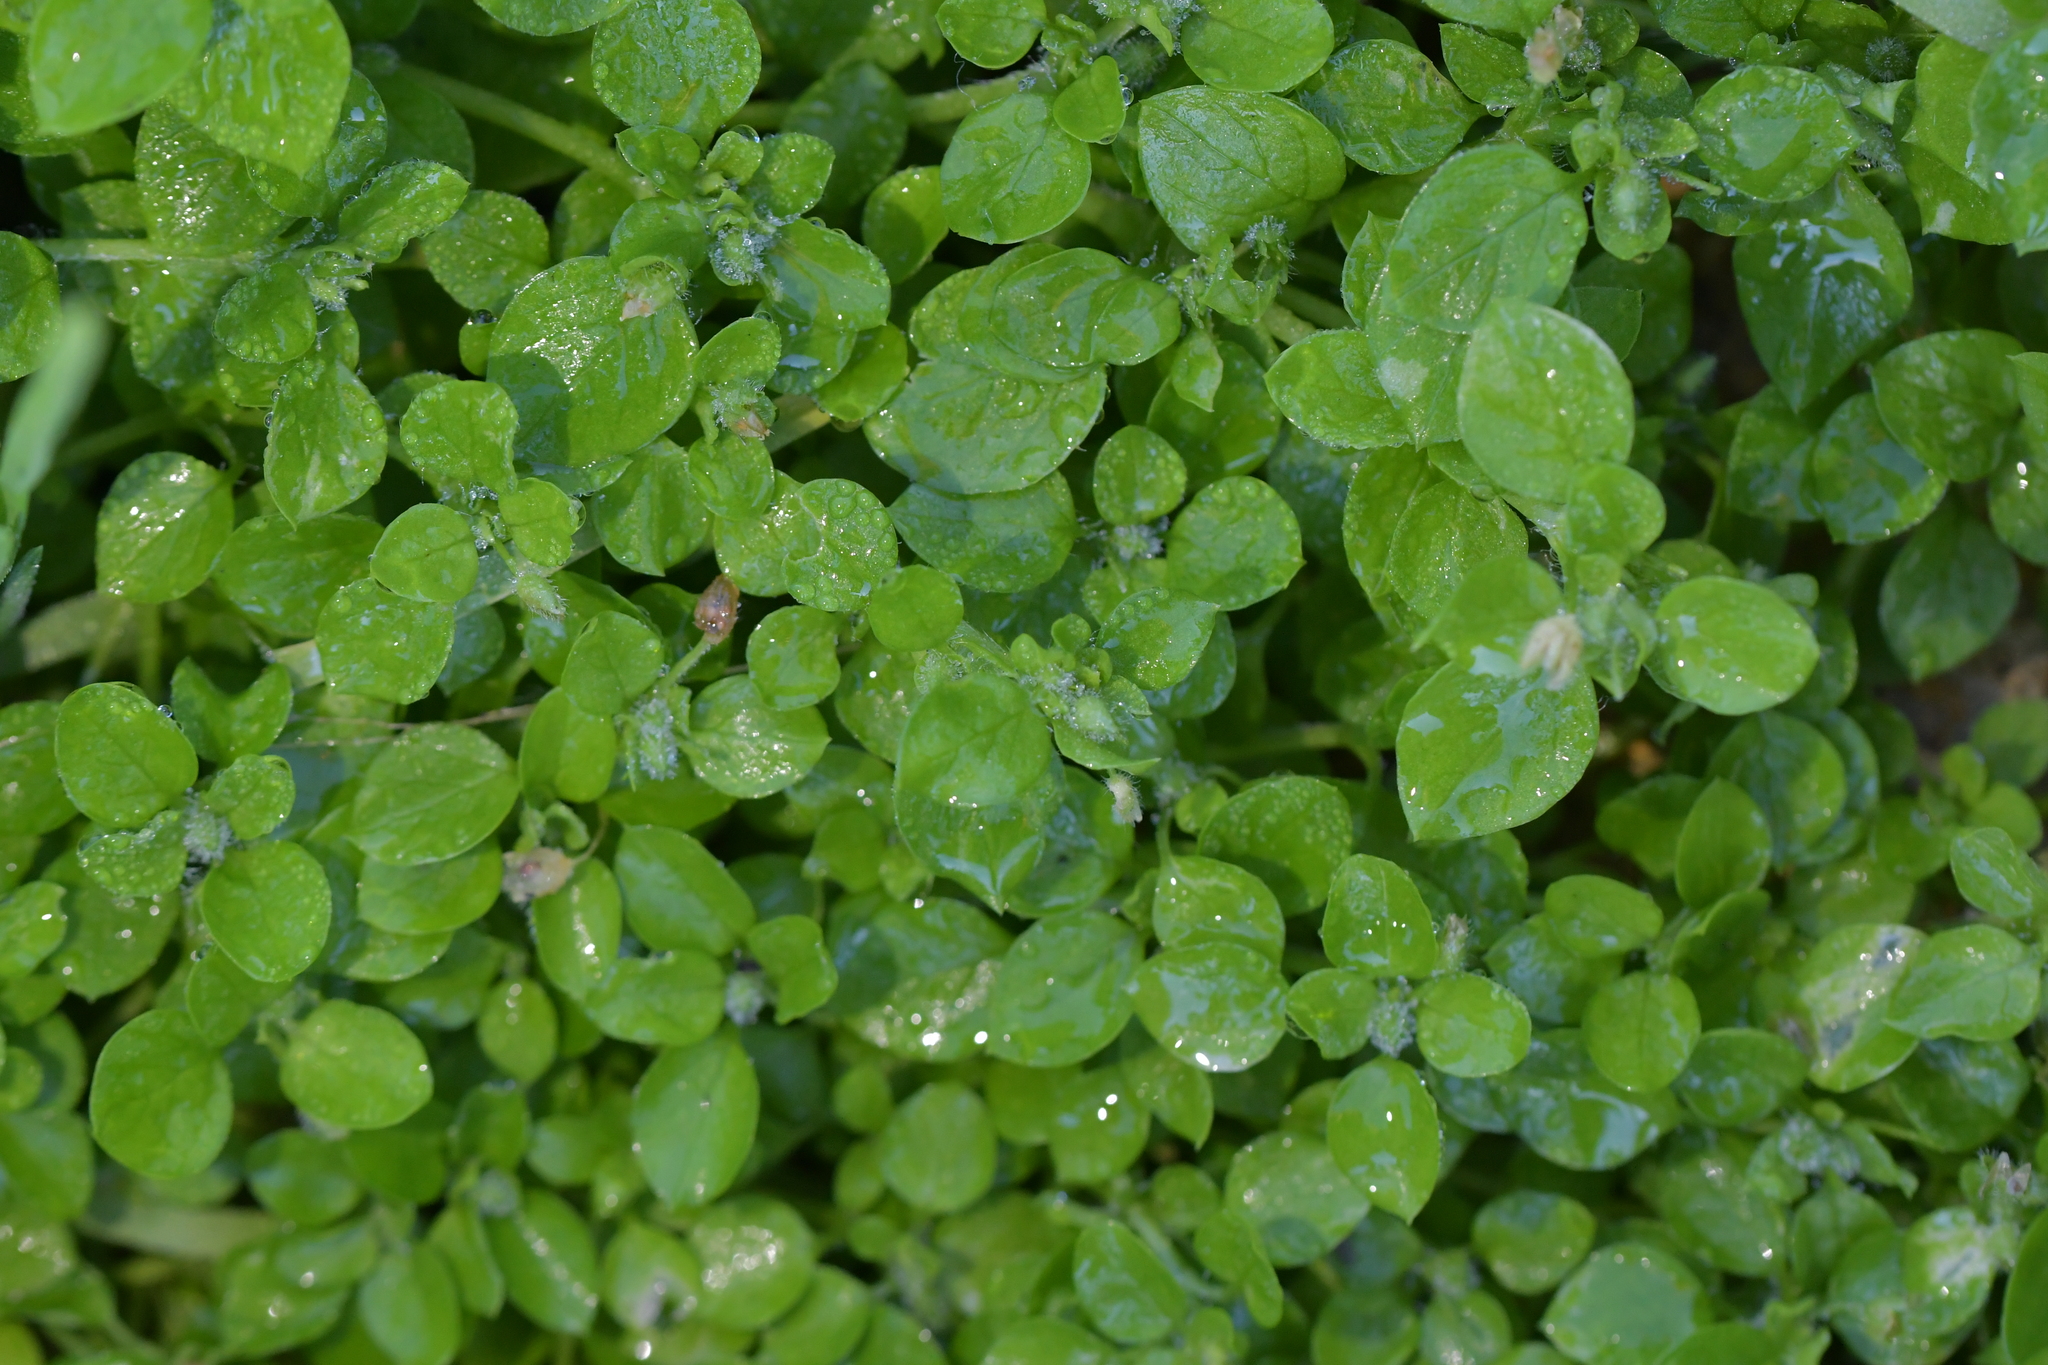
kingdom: Plantae
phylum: Tracheophyta
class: Magnoliopsida
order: Caryophyllales
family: Caryophyllaceae
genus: Stellaria
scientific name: Stellaria media
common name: Common chickweed
